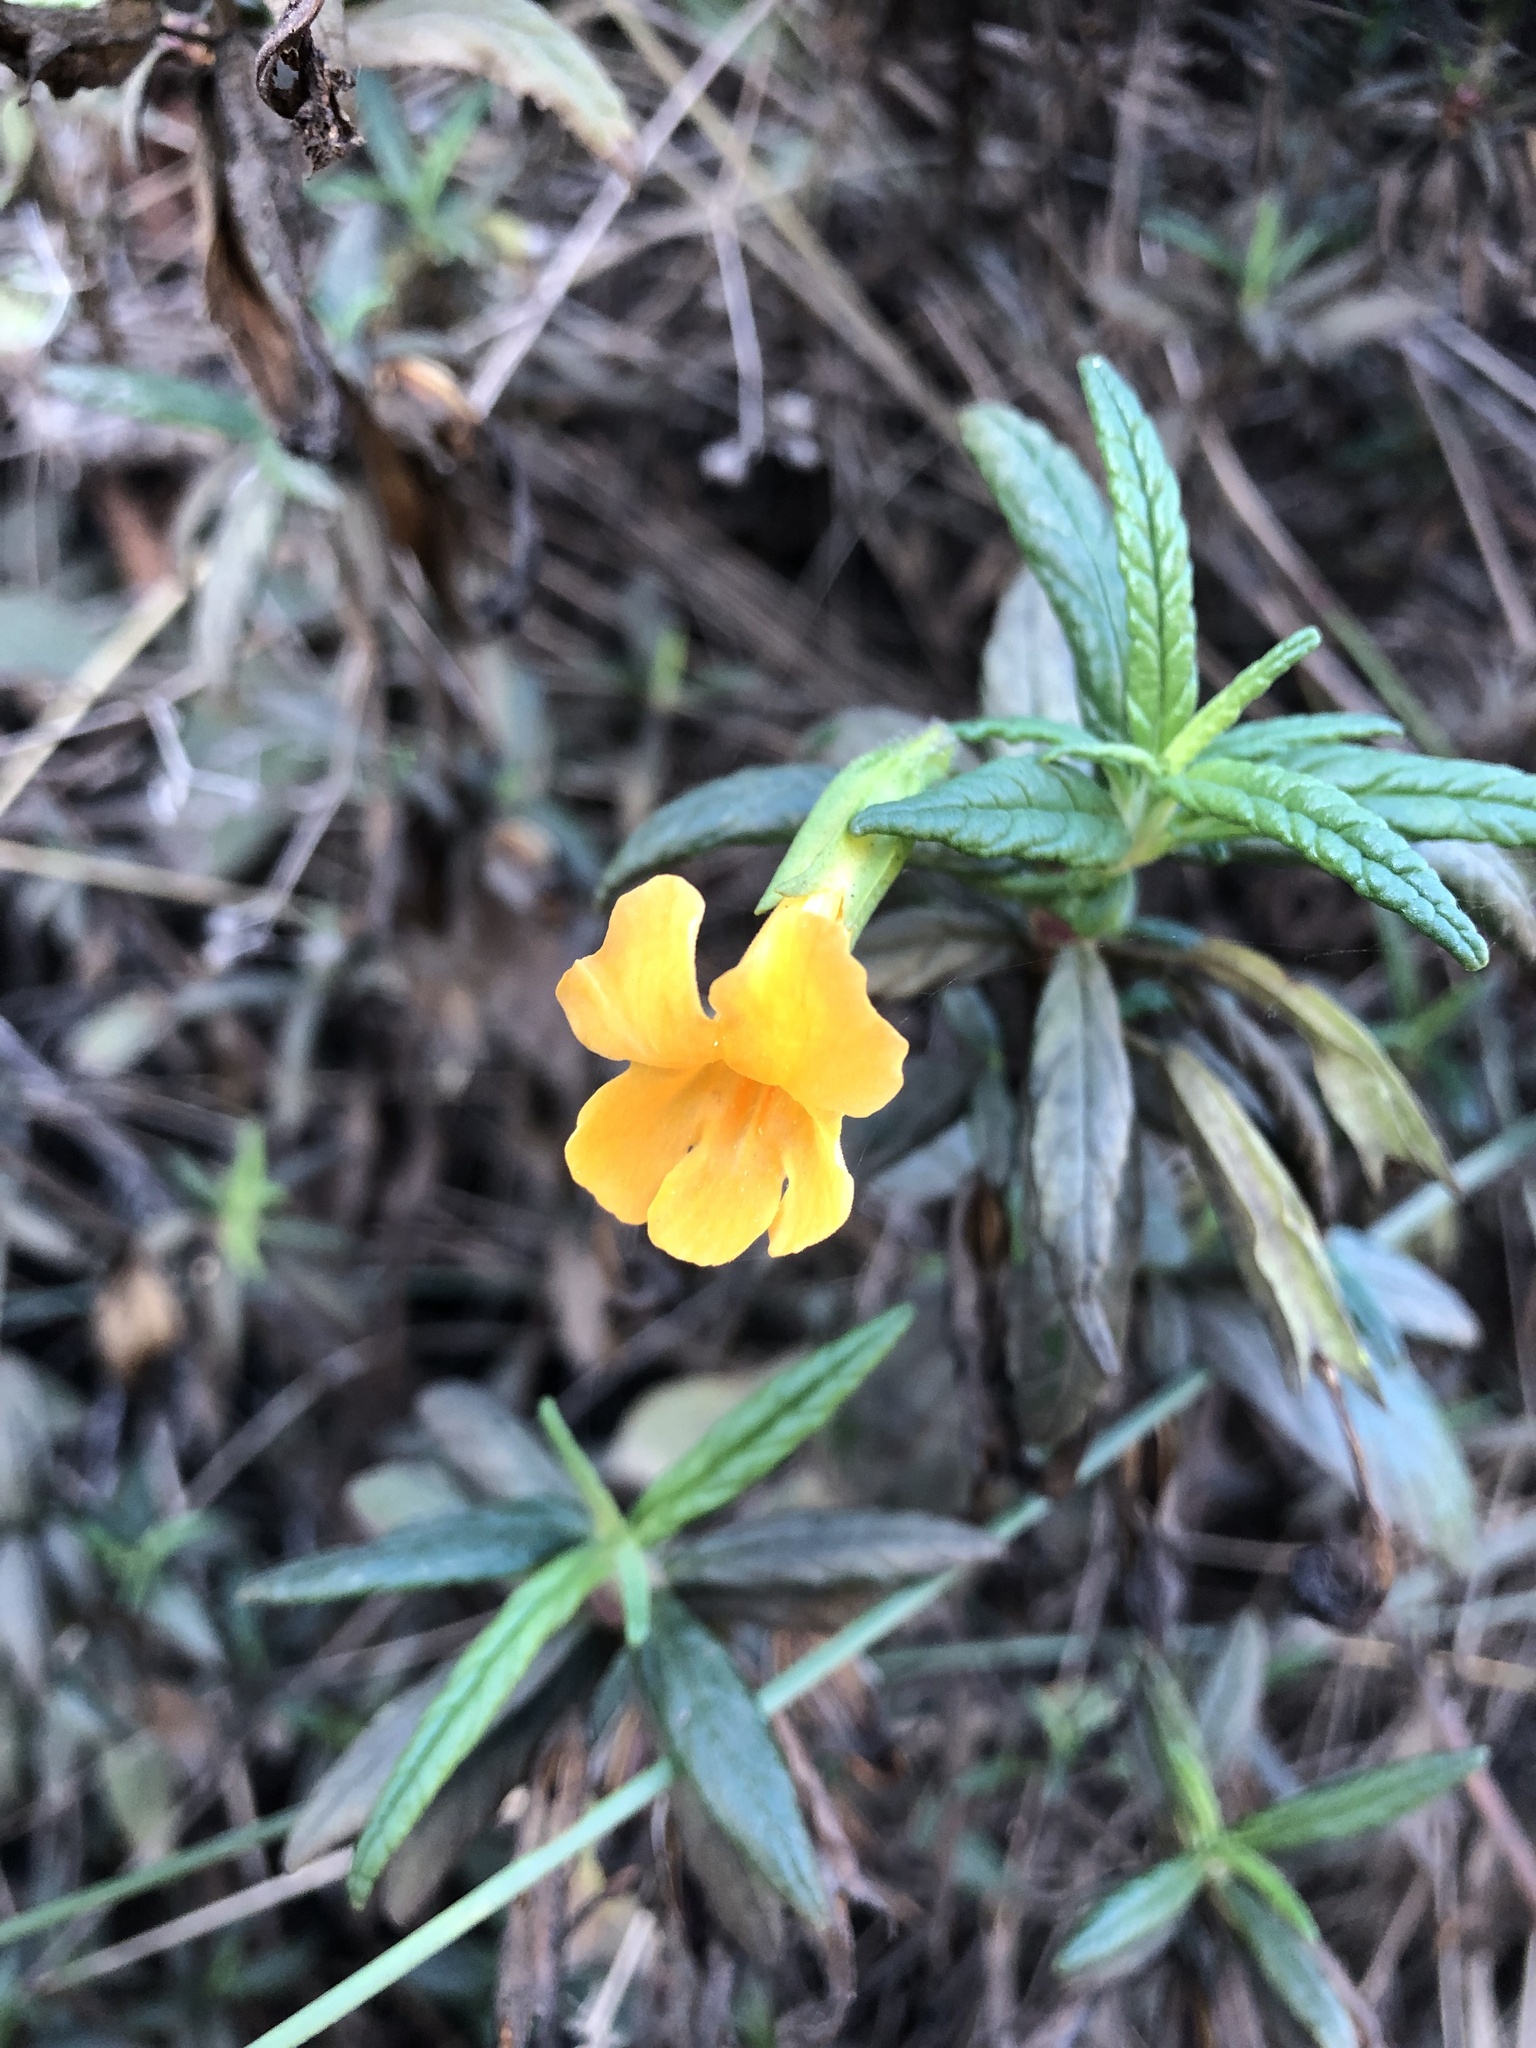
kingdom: Plantae
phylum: Tracheophyta
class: Magnoliopsida
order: Lamiales
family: Phrymaceae
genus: Diplacus
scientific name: Diplacus aurantiacus
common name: Bush monkey-flower
